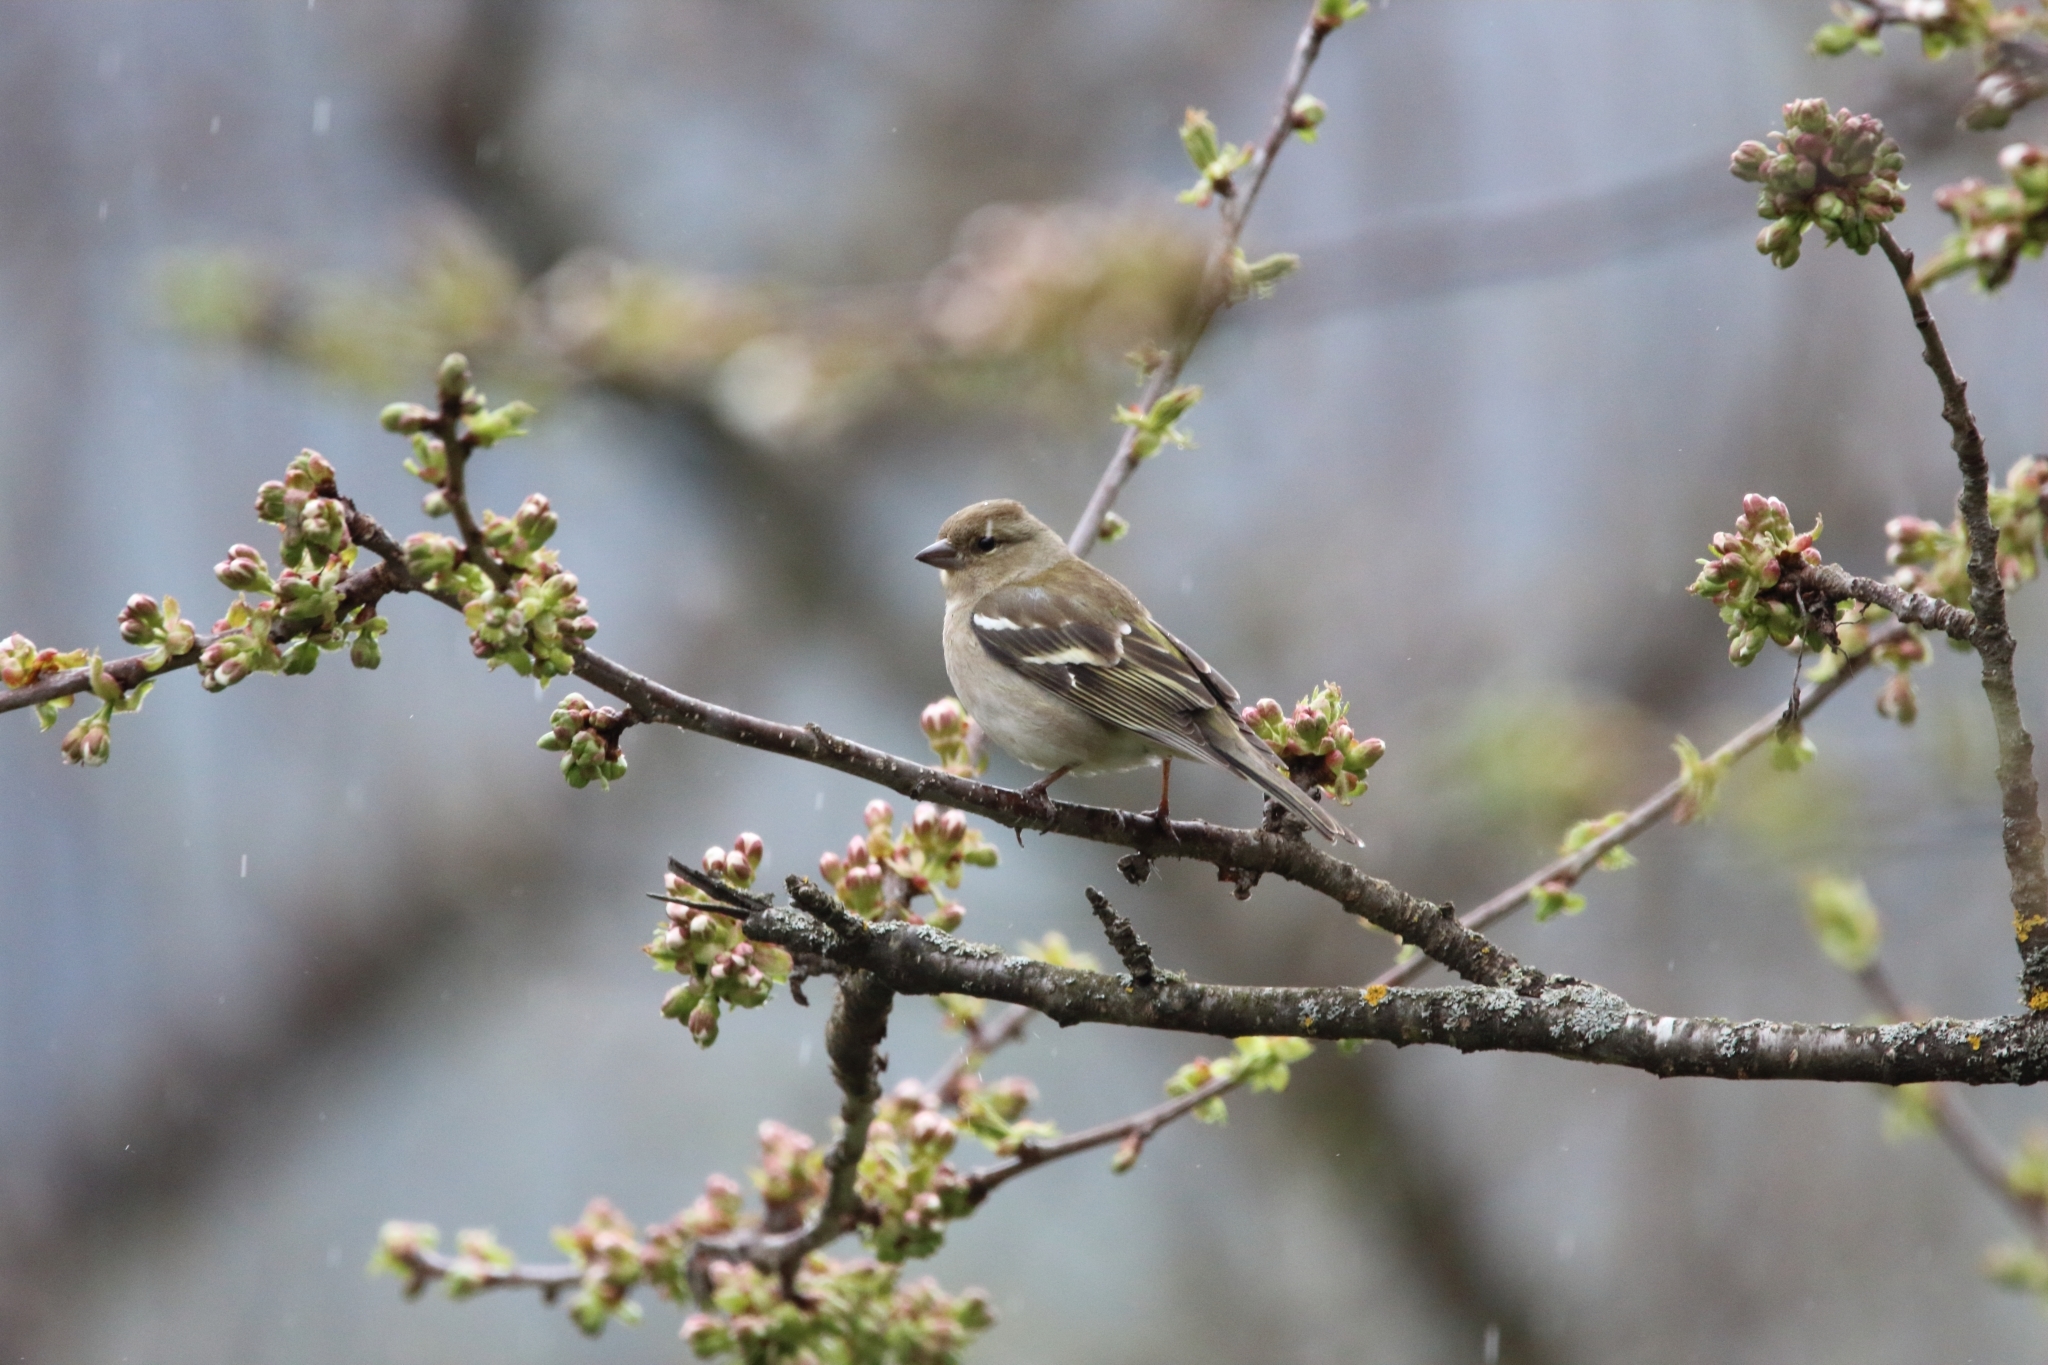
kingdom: Animalia
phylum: Chordata
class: Aves
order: Passeriformes
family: Fringillidae
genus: Fringilla
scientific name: Fringilla coelebs
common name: Common chaffinch
